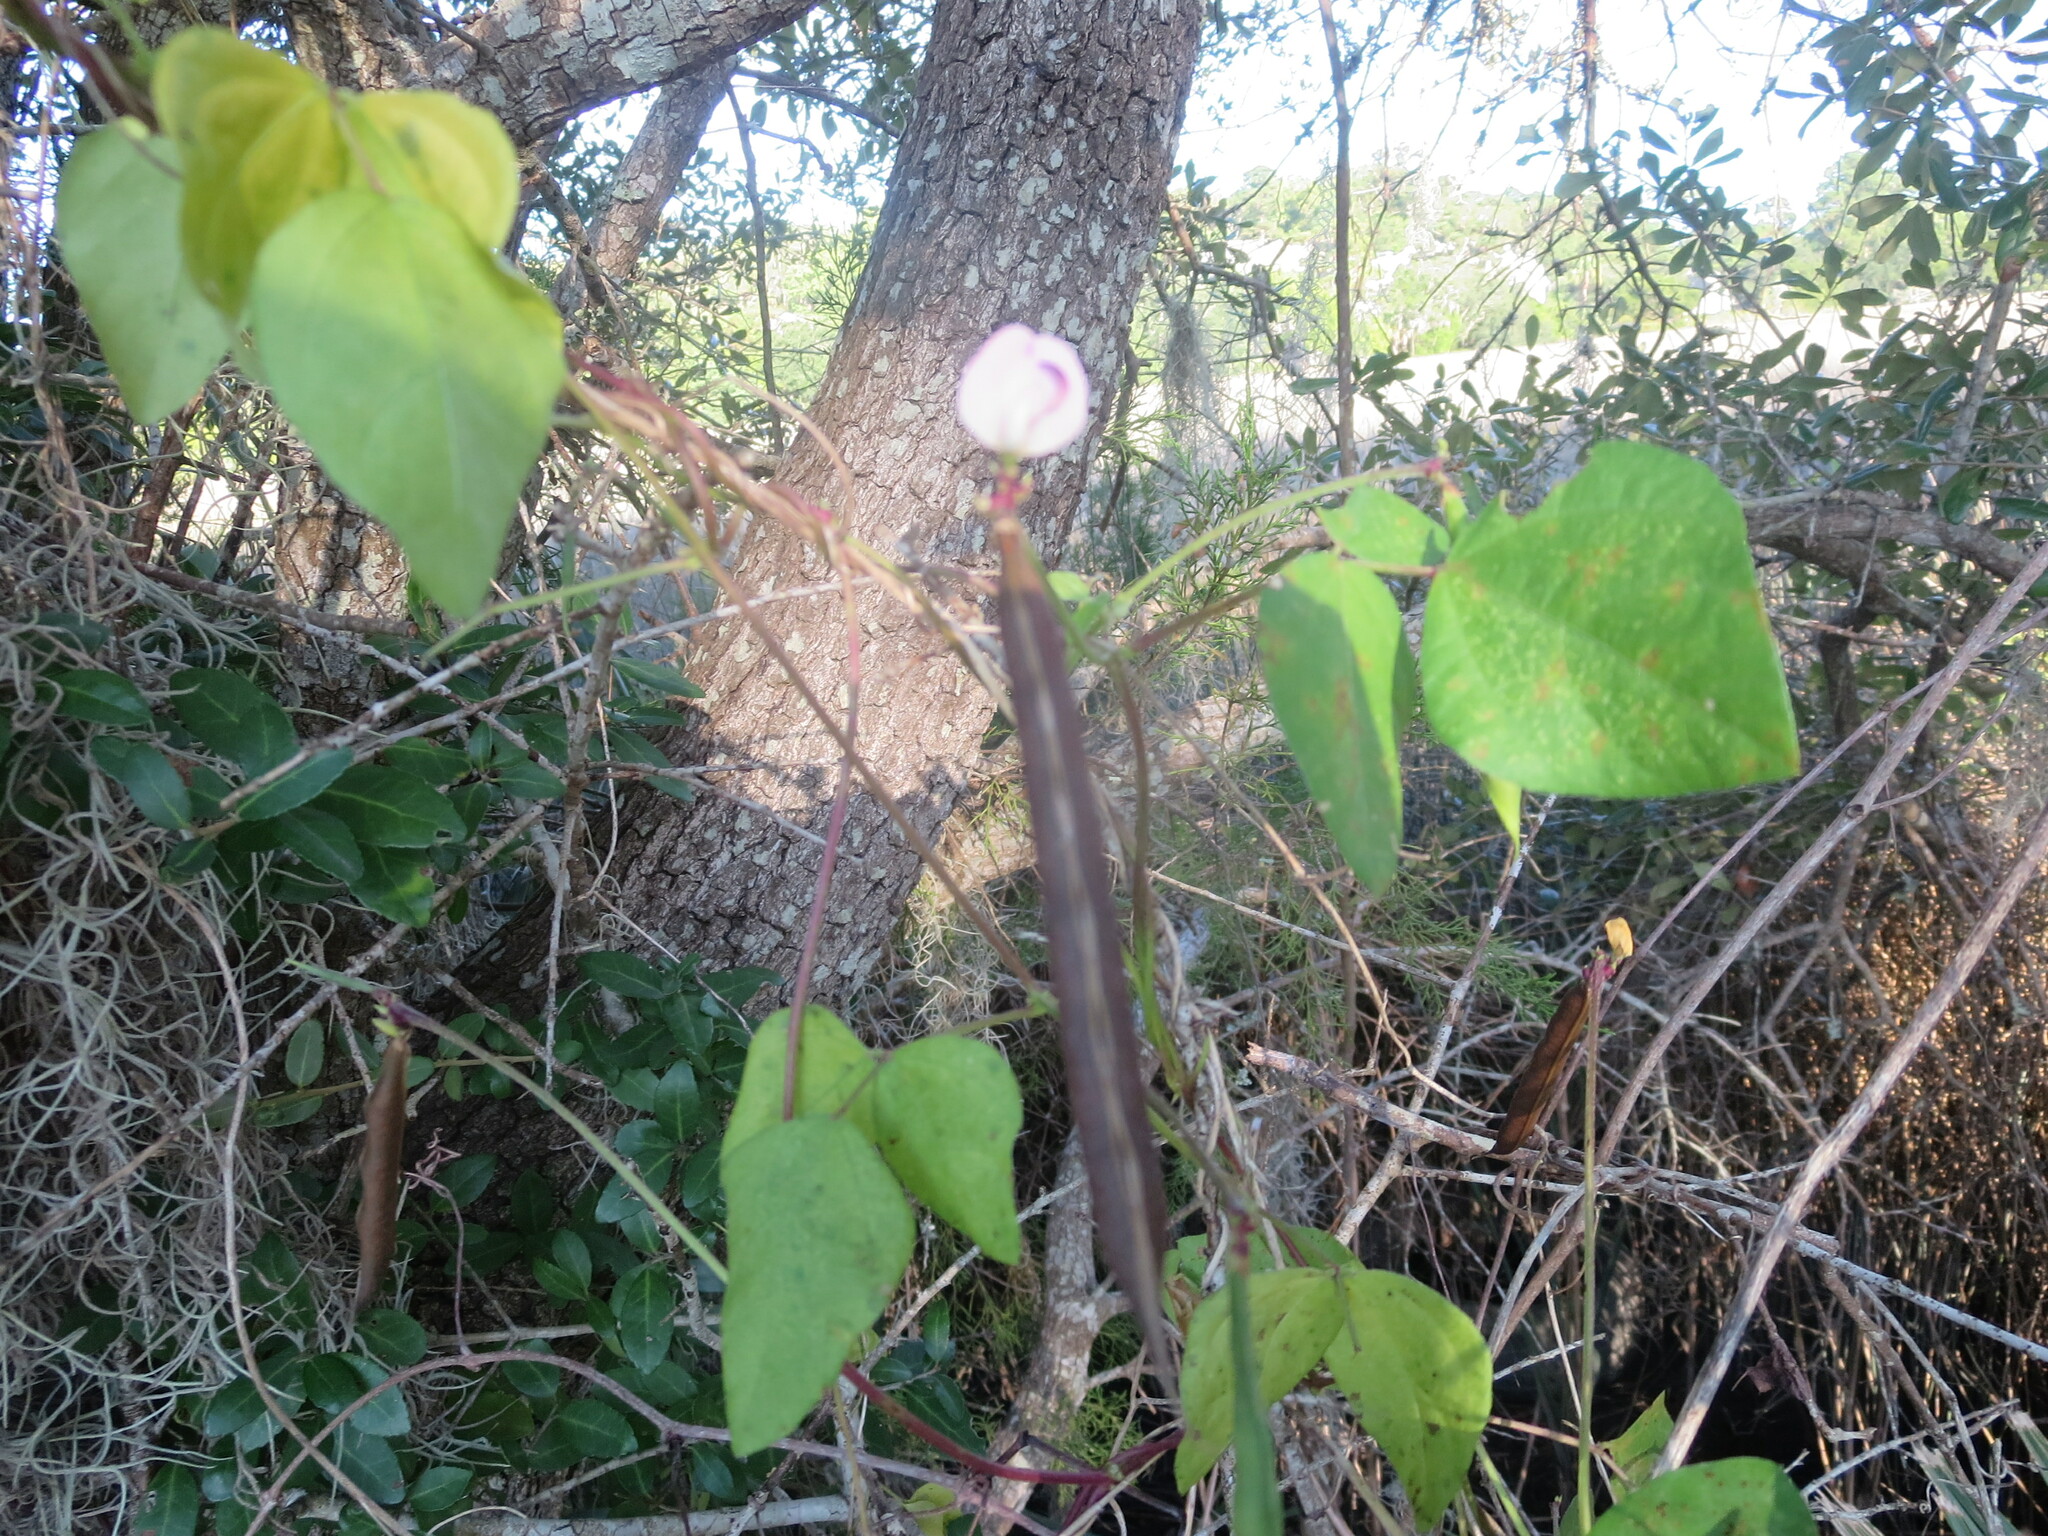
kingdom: Plantae
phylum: Tracheophyta
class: Magnoliopsida
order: Fabales
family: Fabaceae
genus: Strophostyles
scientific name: Strophostyles helvola
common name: Trailing wild bean
